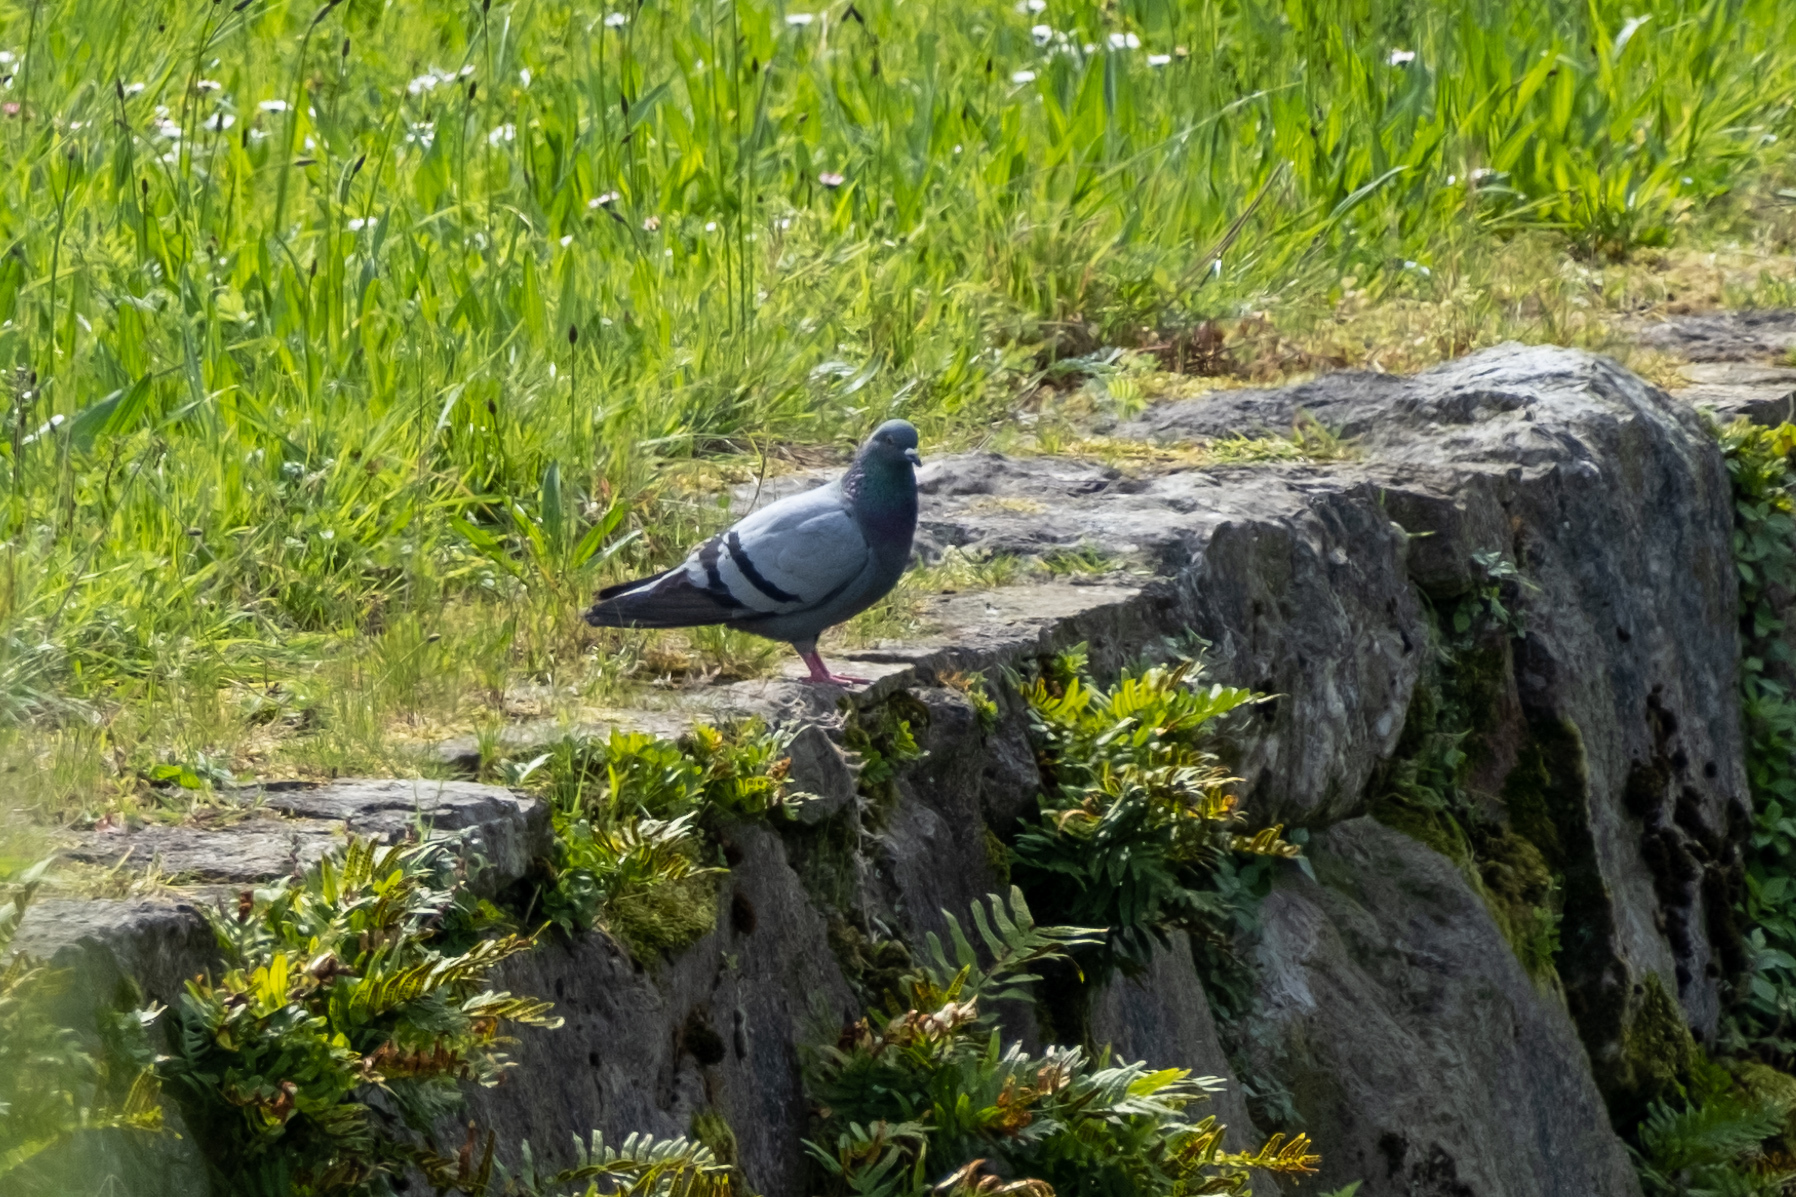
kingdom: Animalia
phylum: Chordata
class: Aves
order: Columbiformes
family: Columbidae
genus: Columba
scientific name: Columba livia
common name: Rock pigeon
